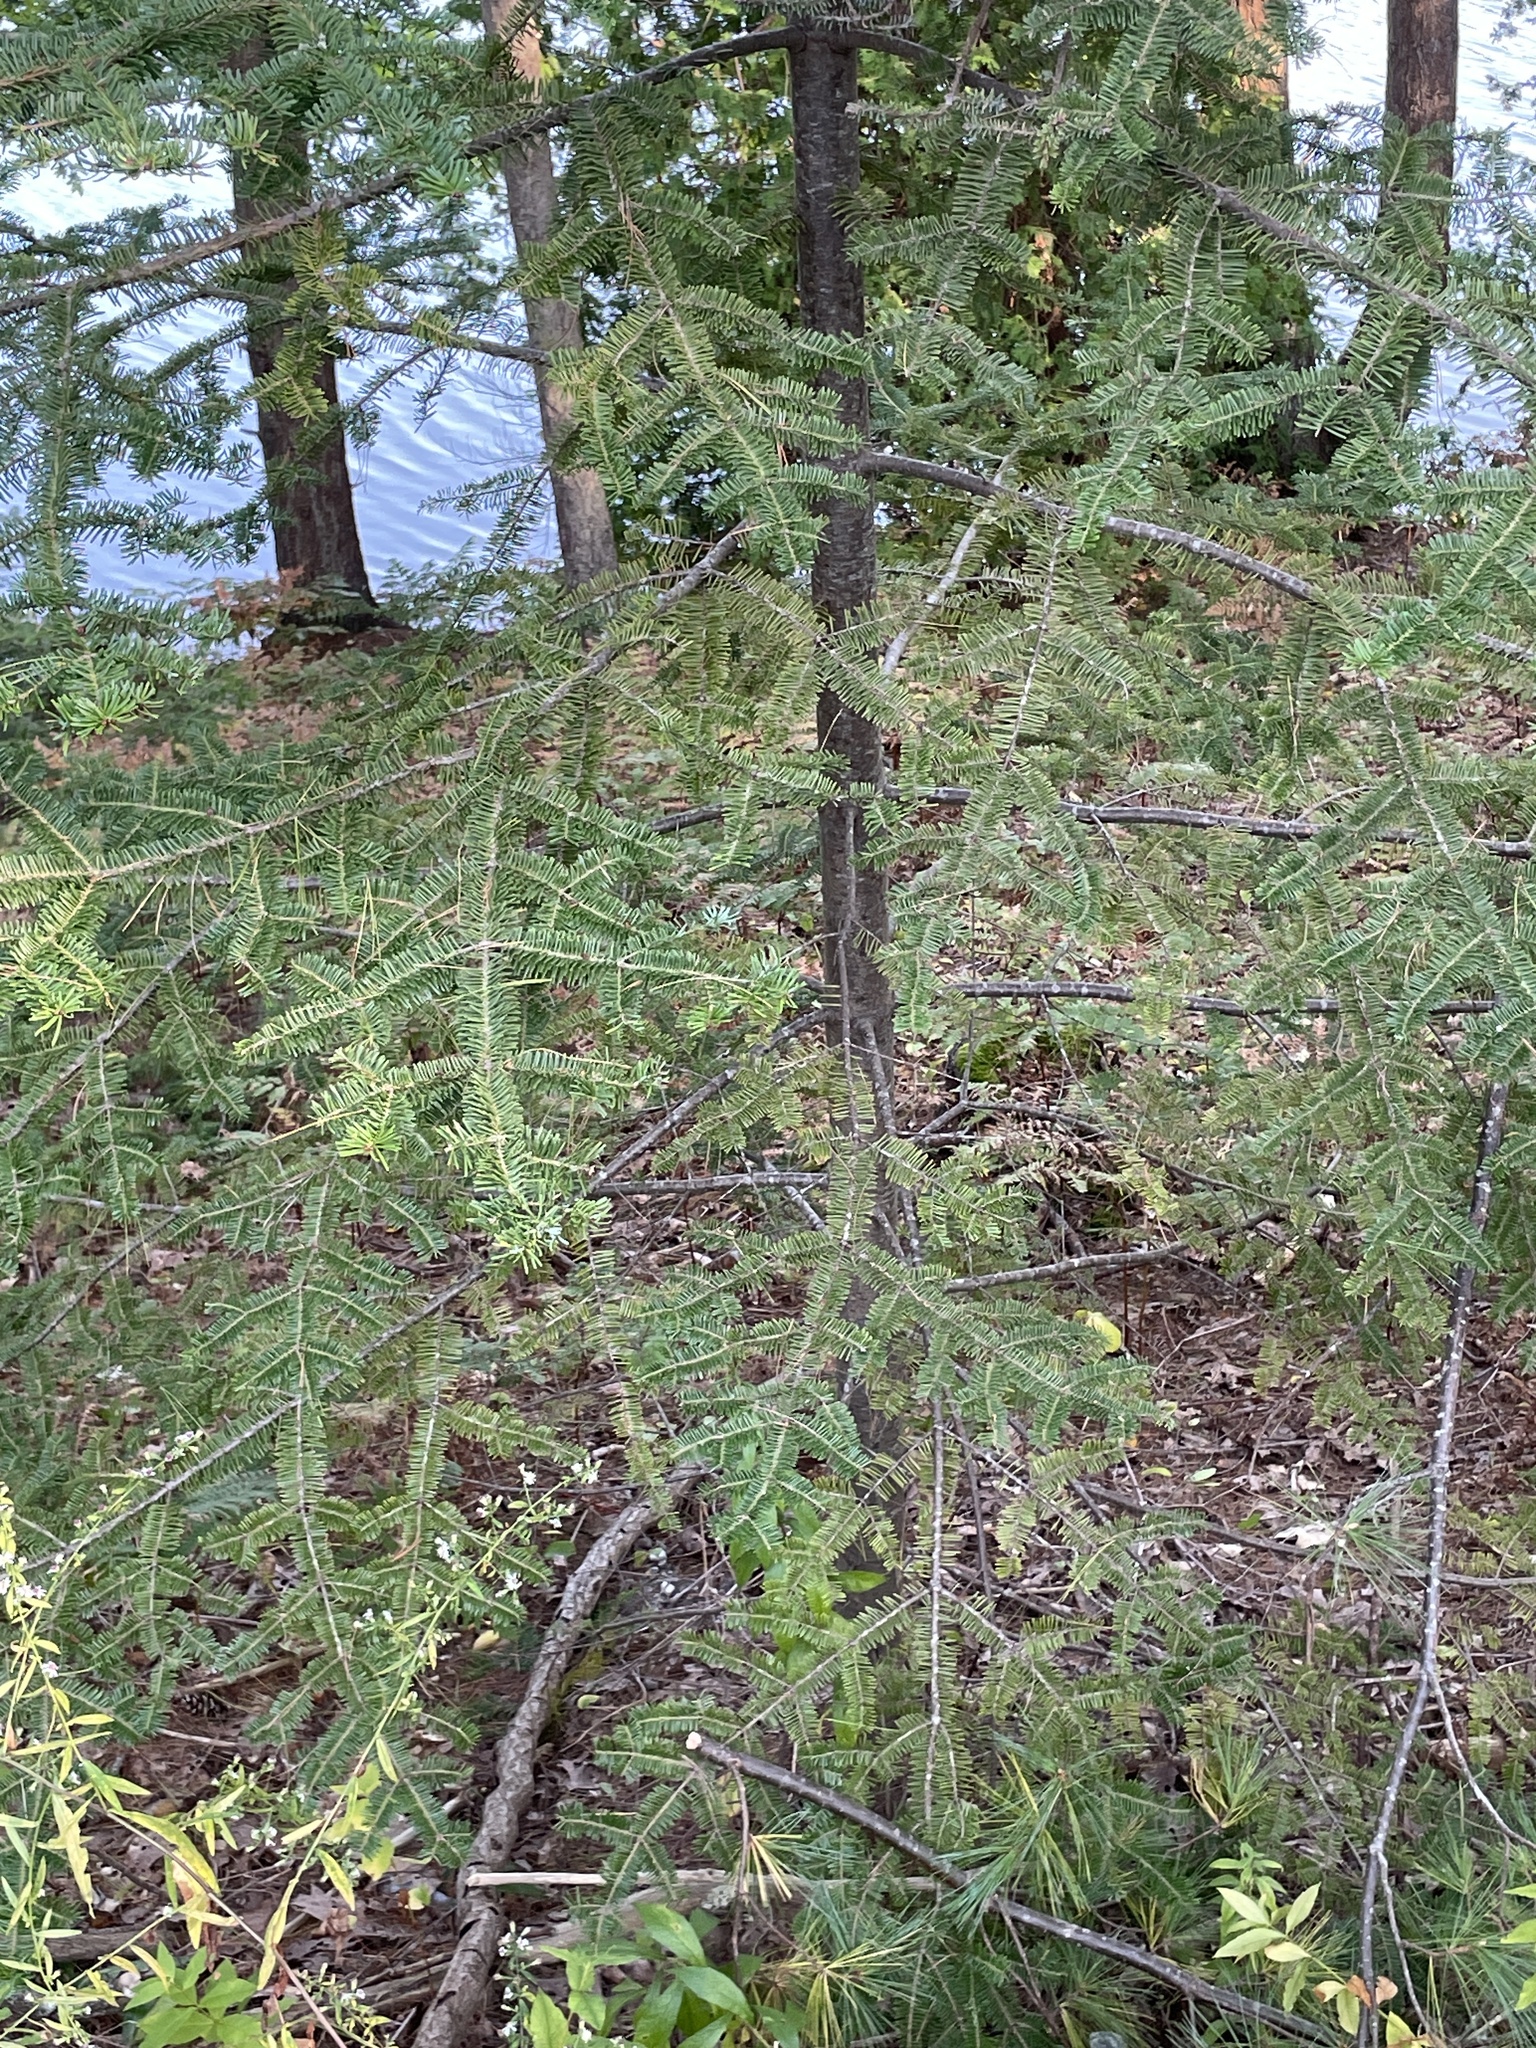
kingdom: Plantae
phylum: Tracheophyta
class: Pinopsida
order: Pinales
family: Pinaceae
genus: Abies
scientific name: Abies balsamea
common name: Balsam fir
